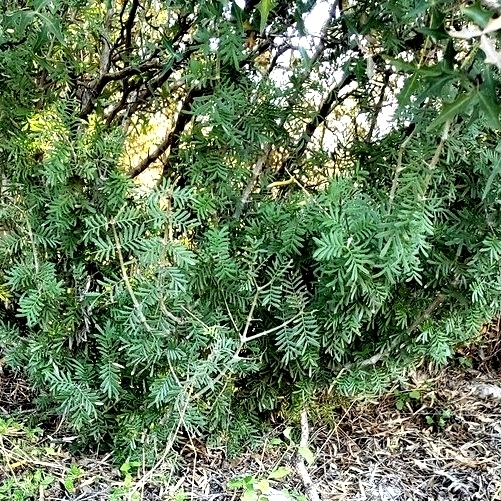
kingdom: Plantae
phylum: Tracheophyta
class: Magnoliopsida
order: Zygophyllales
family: Zygophyllaceae
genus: Porlieria
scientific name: Porlieria angustifolia
